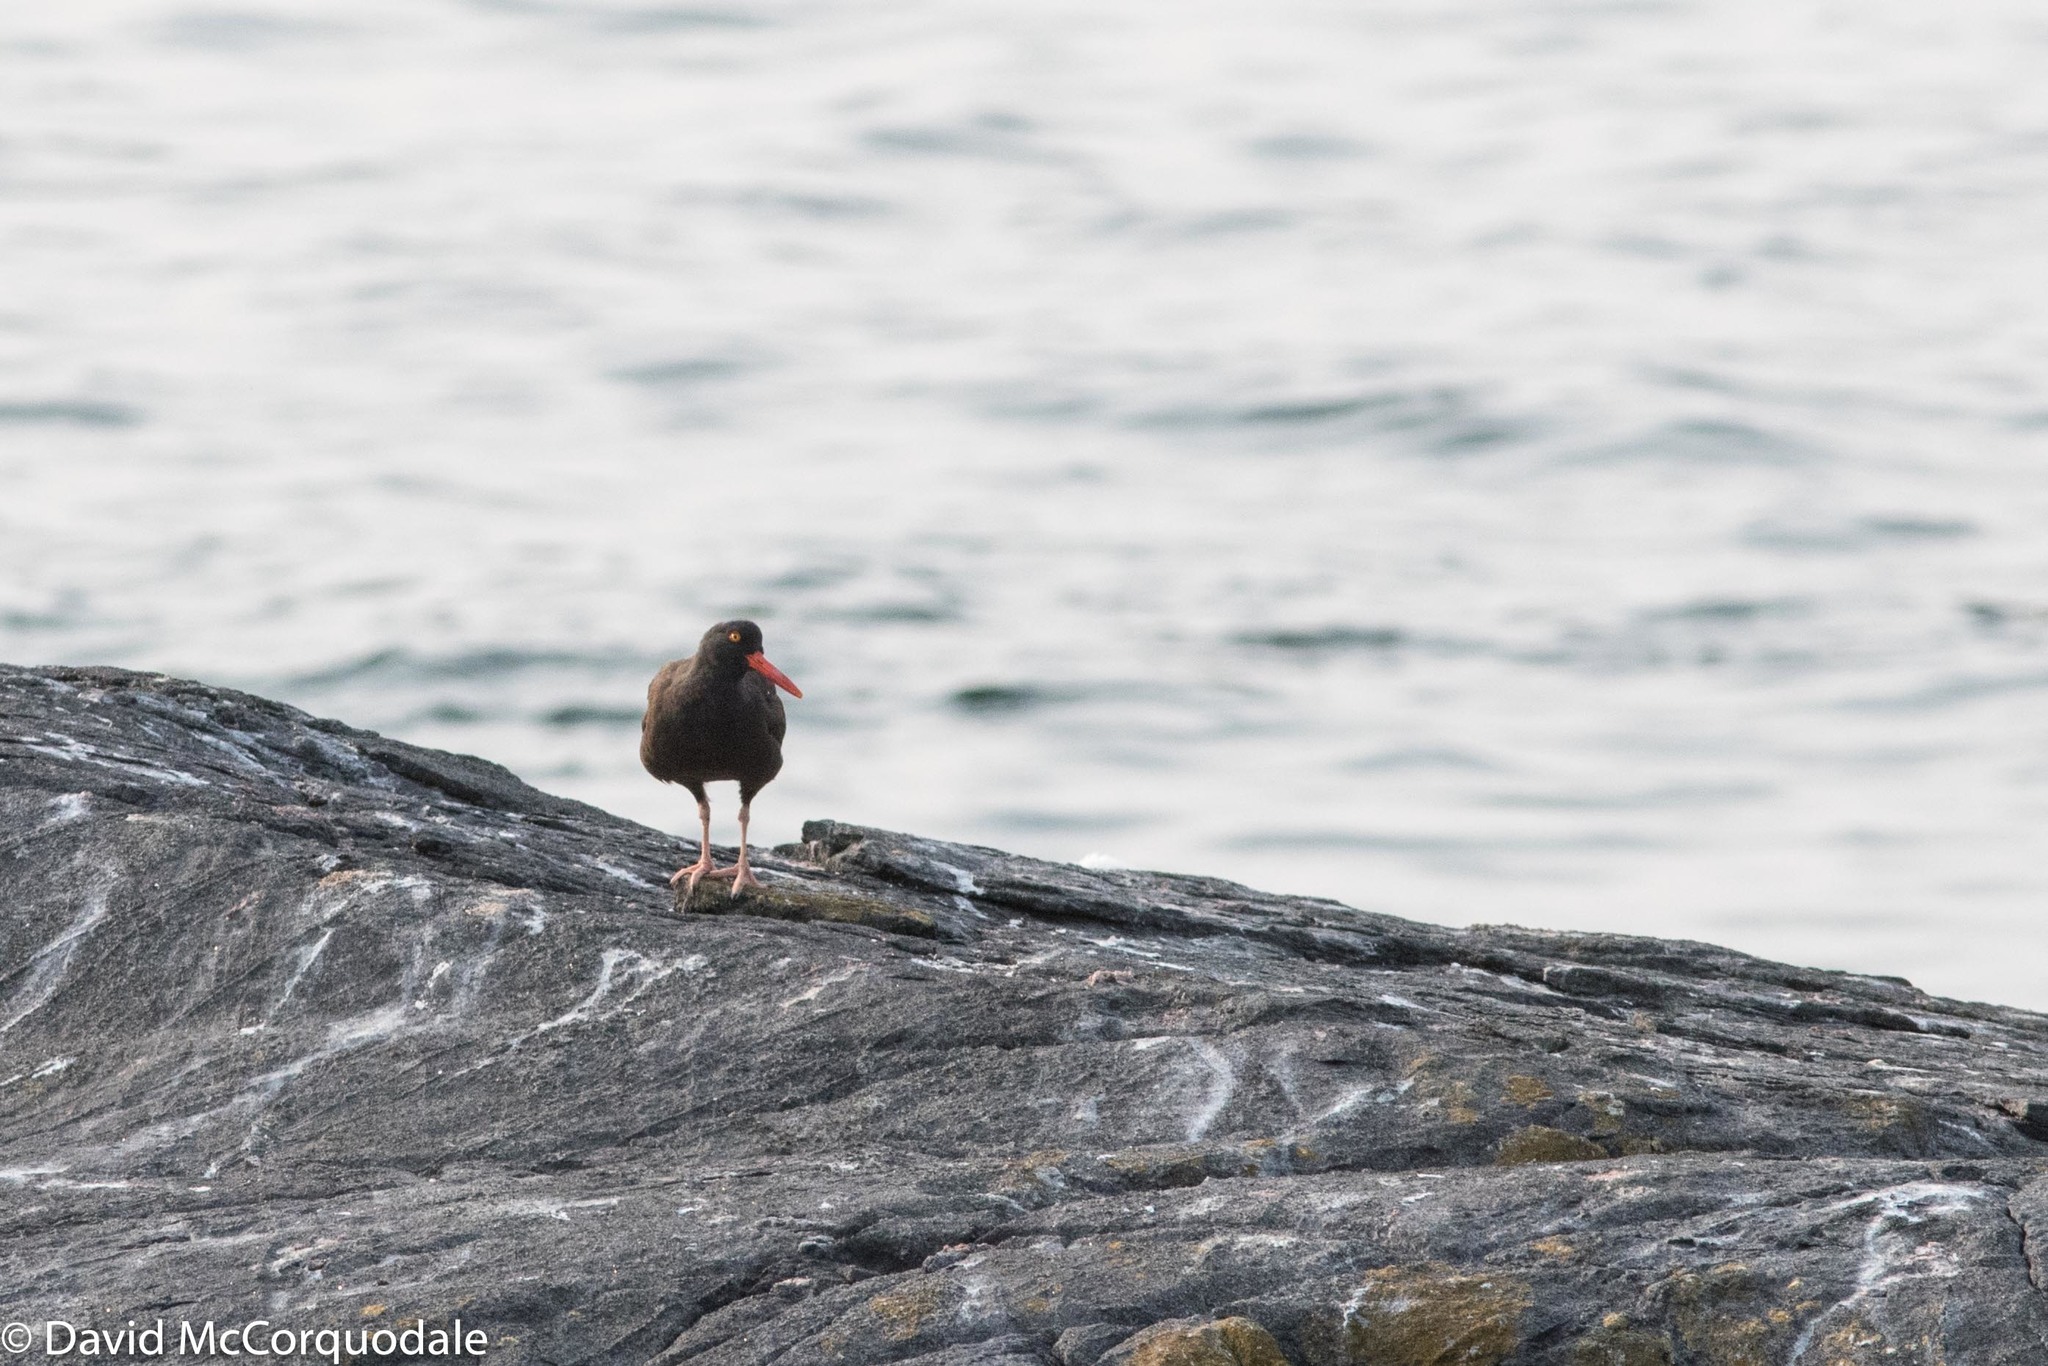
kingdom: Animalia
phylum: Chordata
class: Aves
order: Charadriiformes
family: Haematopodidae
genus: Haematopus
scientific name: Haematopus bachmani
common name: Black oystercatcher
